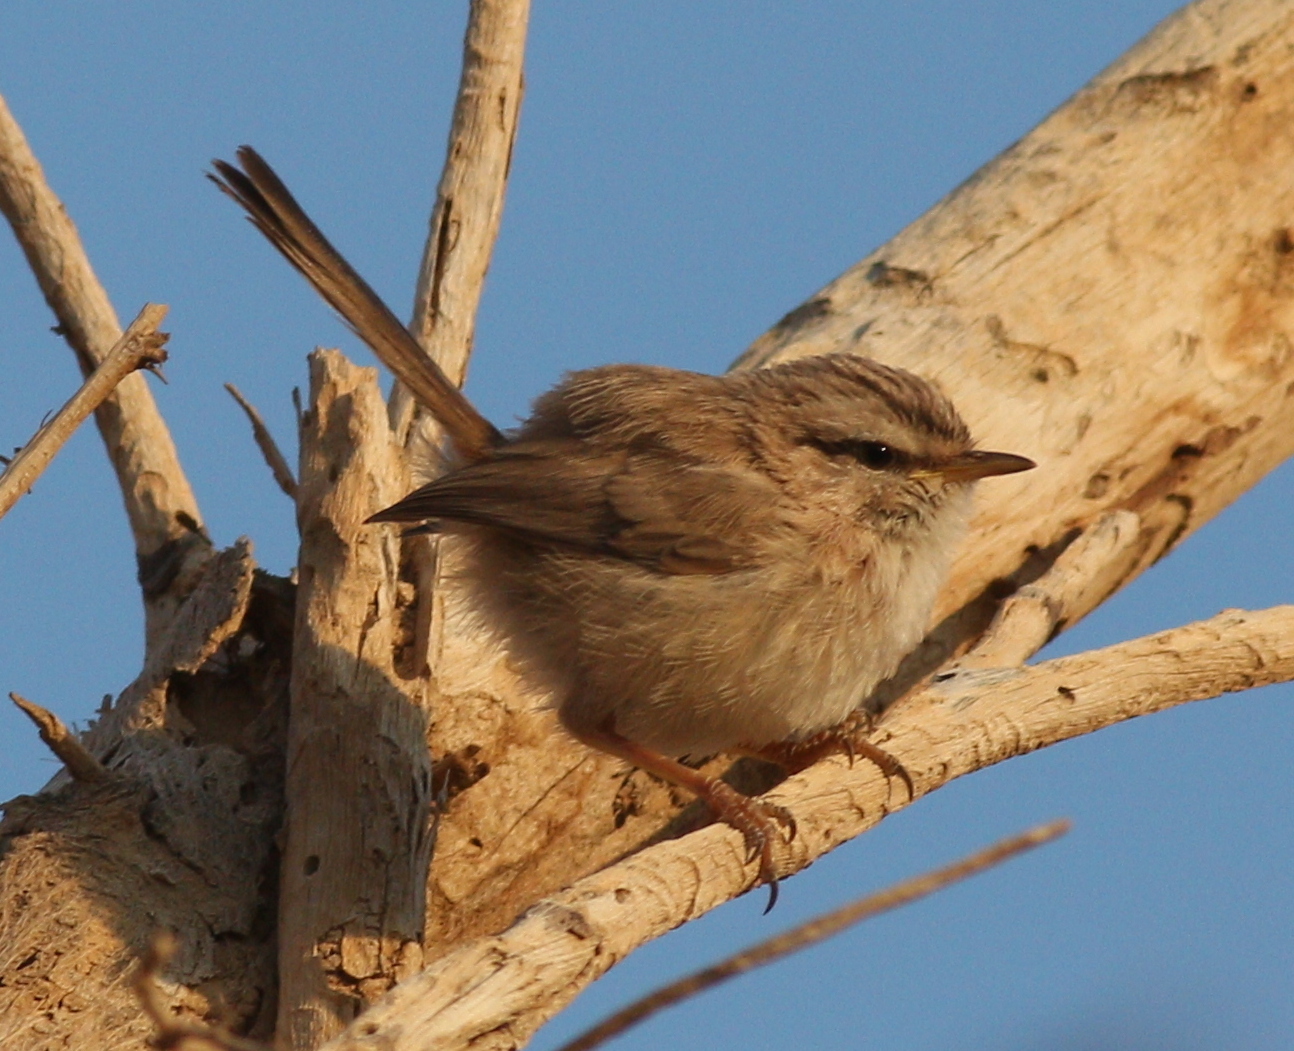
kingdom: Animalia
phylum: Chordata
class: Aves
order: Passeriformes
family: Scotocercidae
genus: Scotocerca
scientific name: Scotocerca inquieta
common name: Scrub warbler
